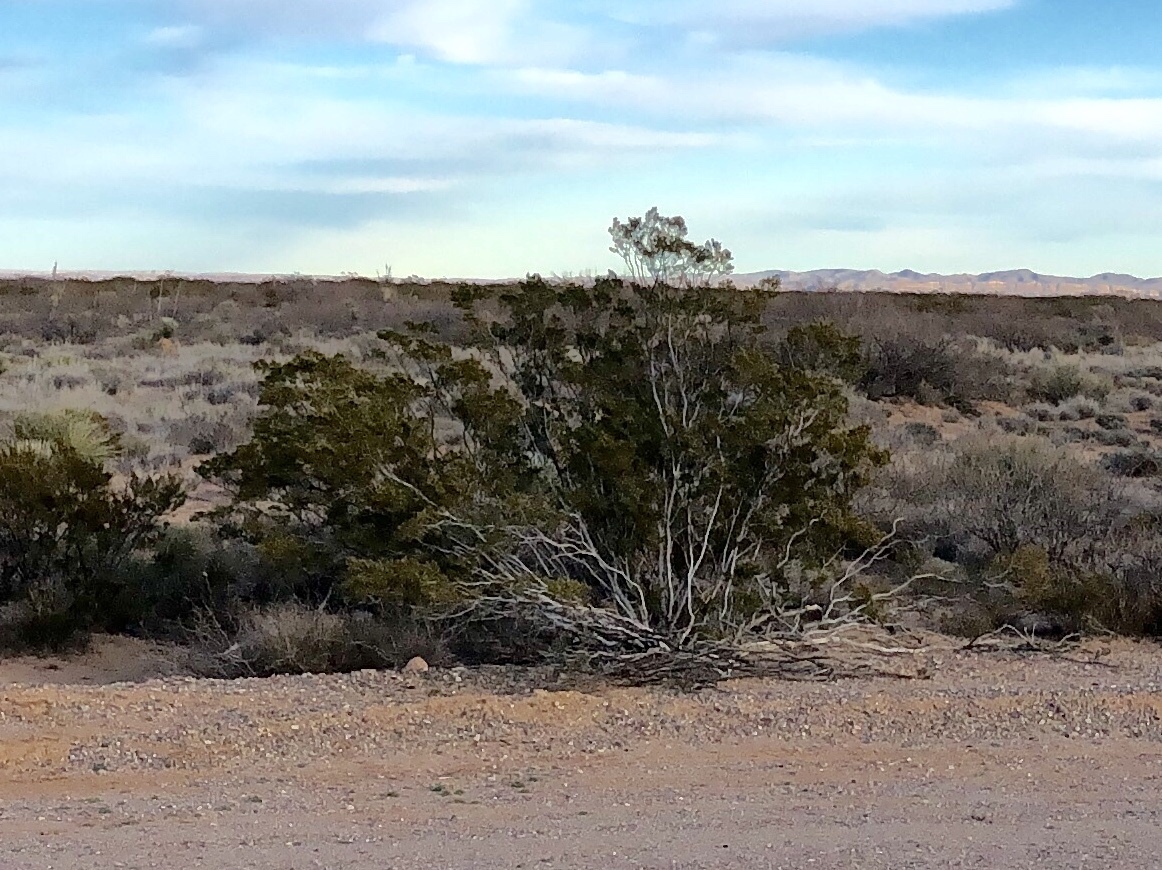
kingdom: Plantae
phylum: Tracheophyta
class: Magnoliopsida
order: Zygophyllales
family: Zygophyllaceae
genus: Larrea
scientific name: Larrea tridentata
